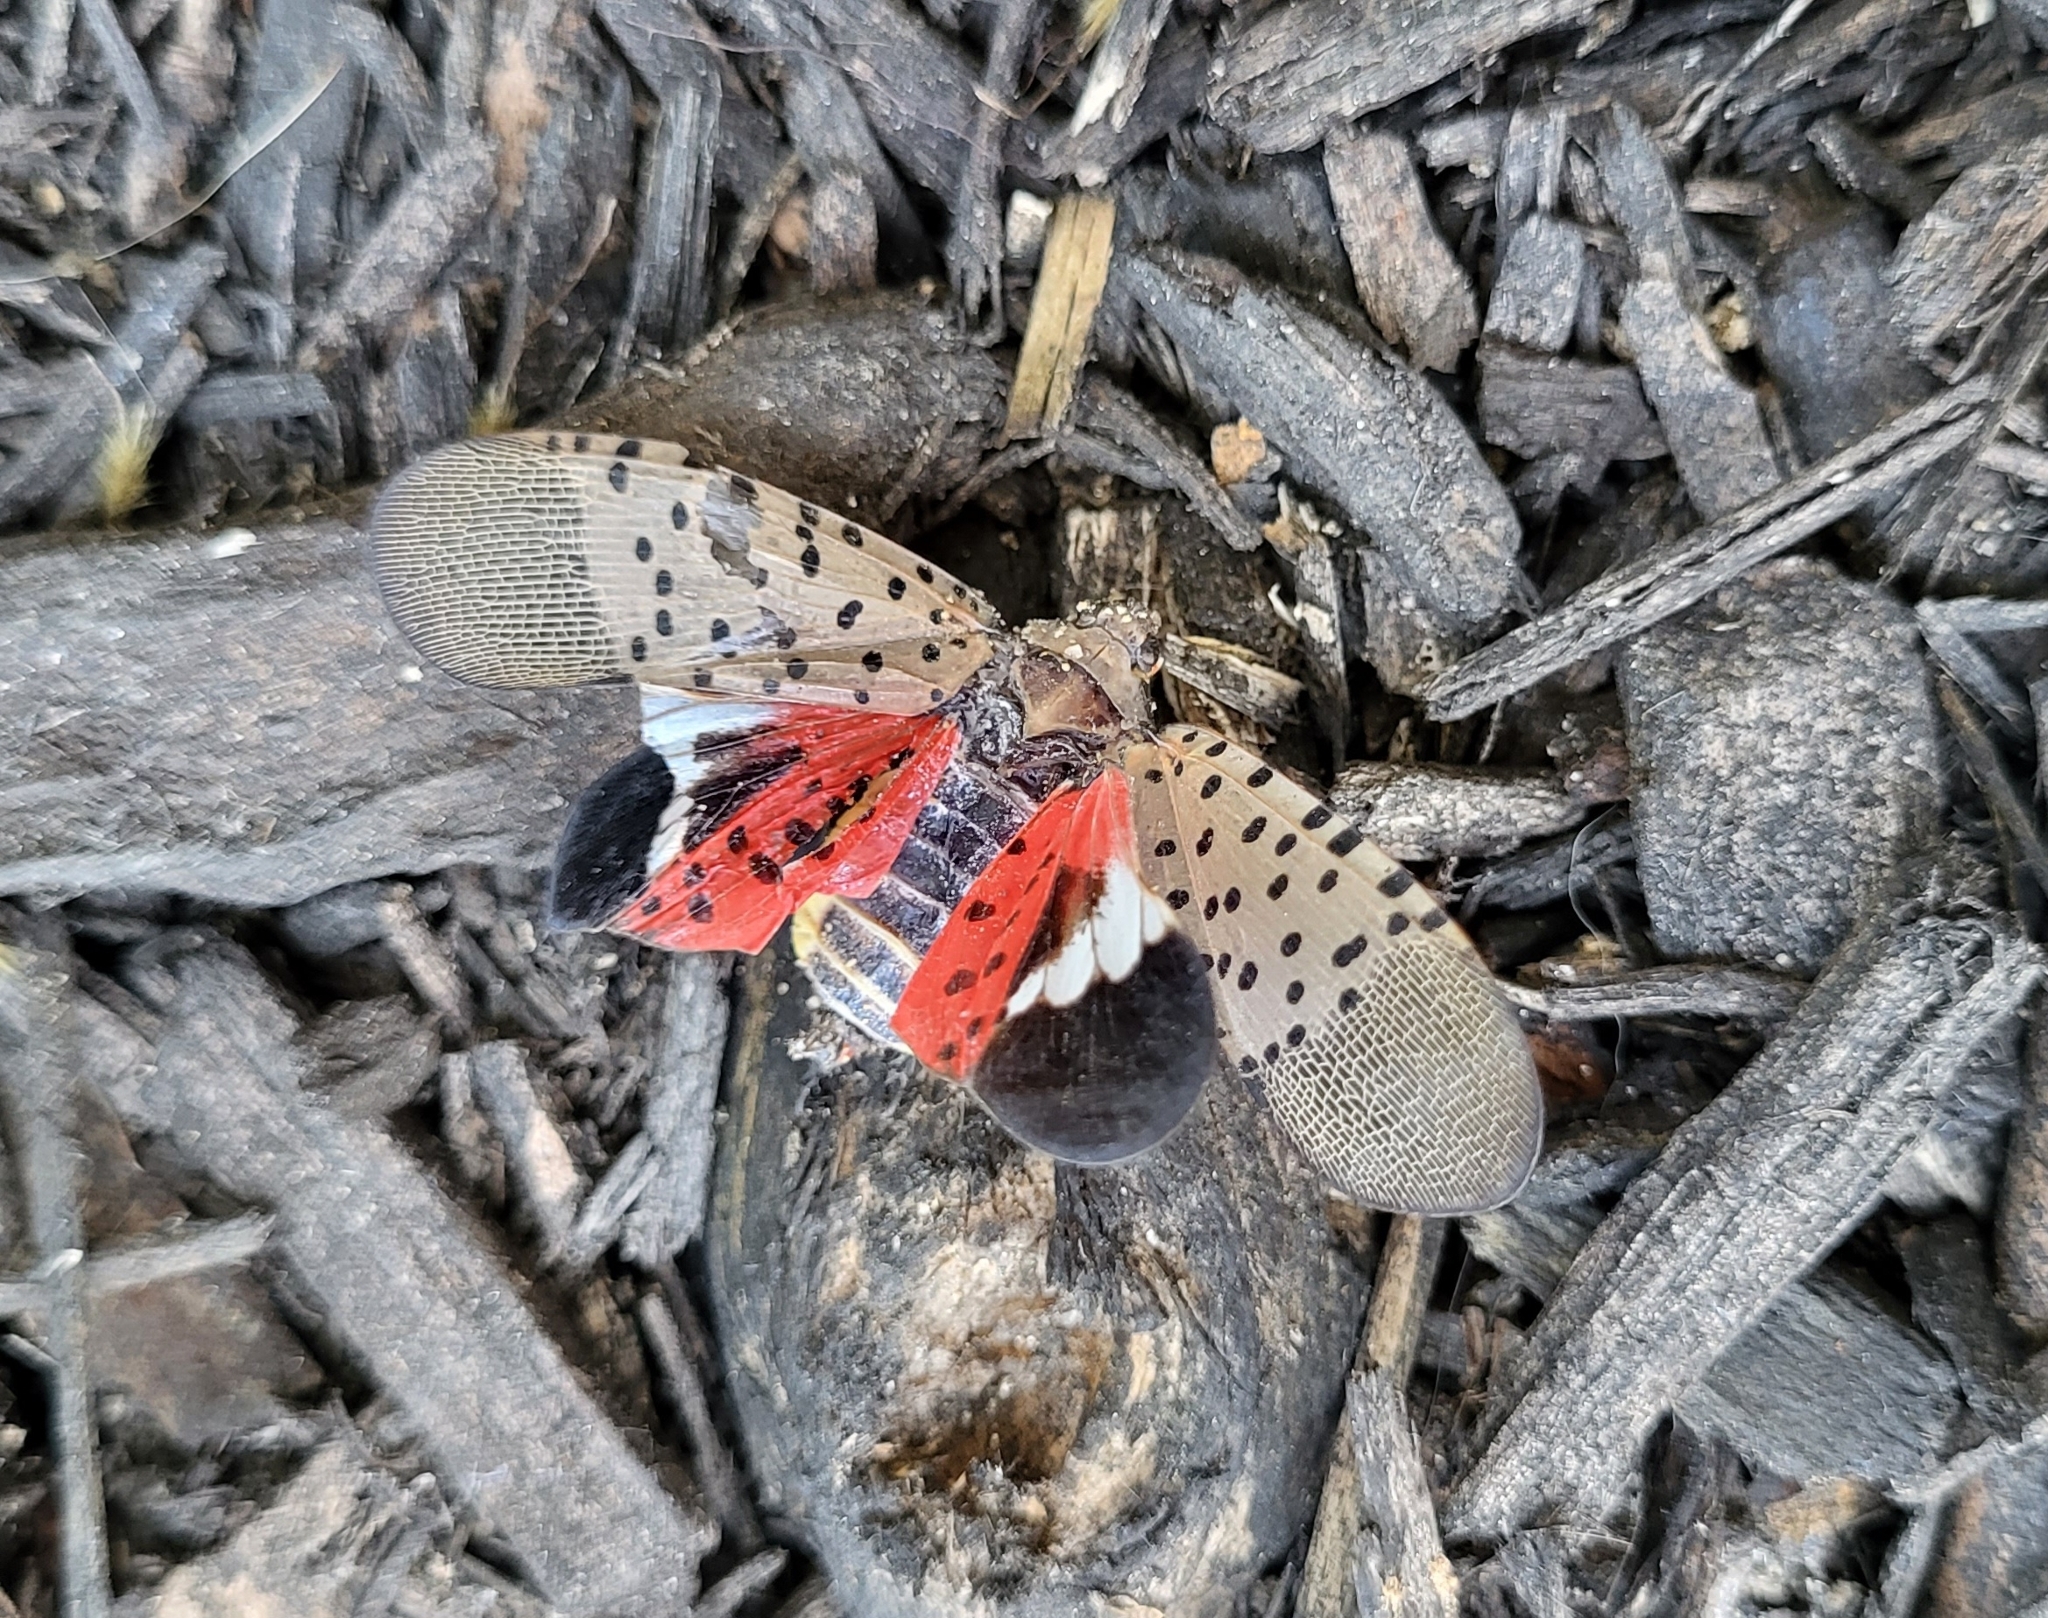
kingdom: Animalia
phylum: Arthropoda
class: Insecta
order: Hemiptera
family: Fulgoridae
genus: Lycorma
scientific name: Lycorma delicatula
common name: Spotted lanternfly
